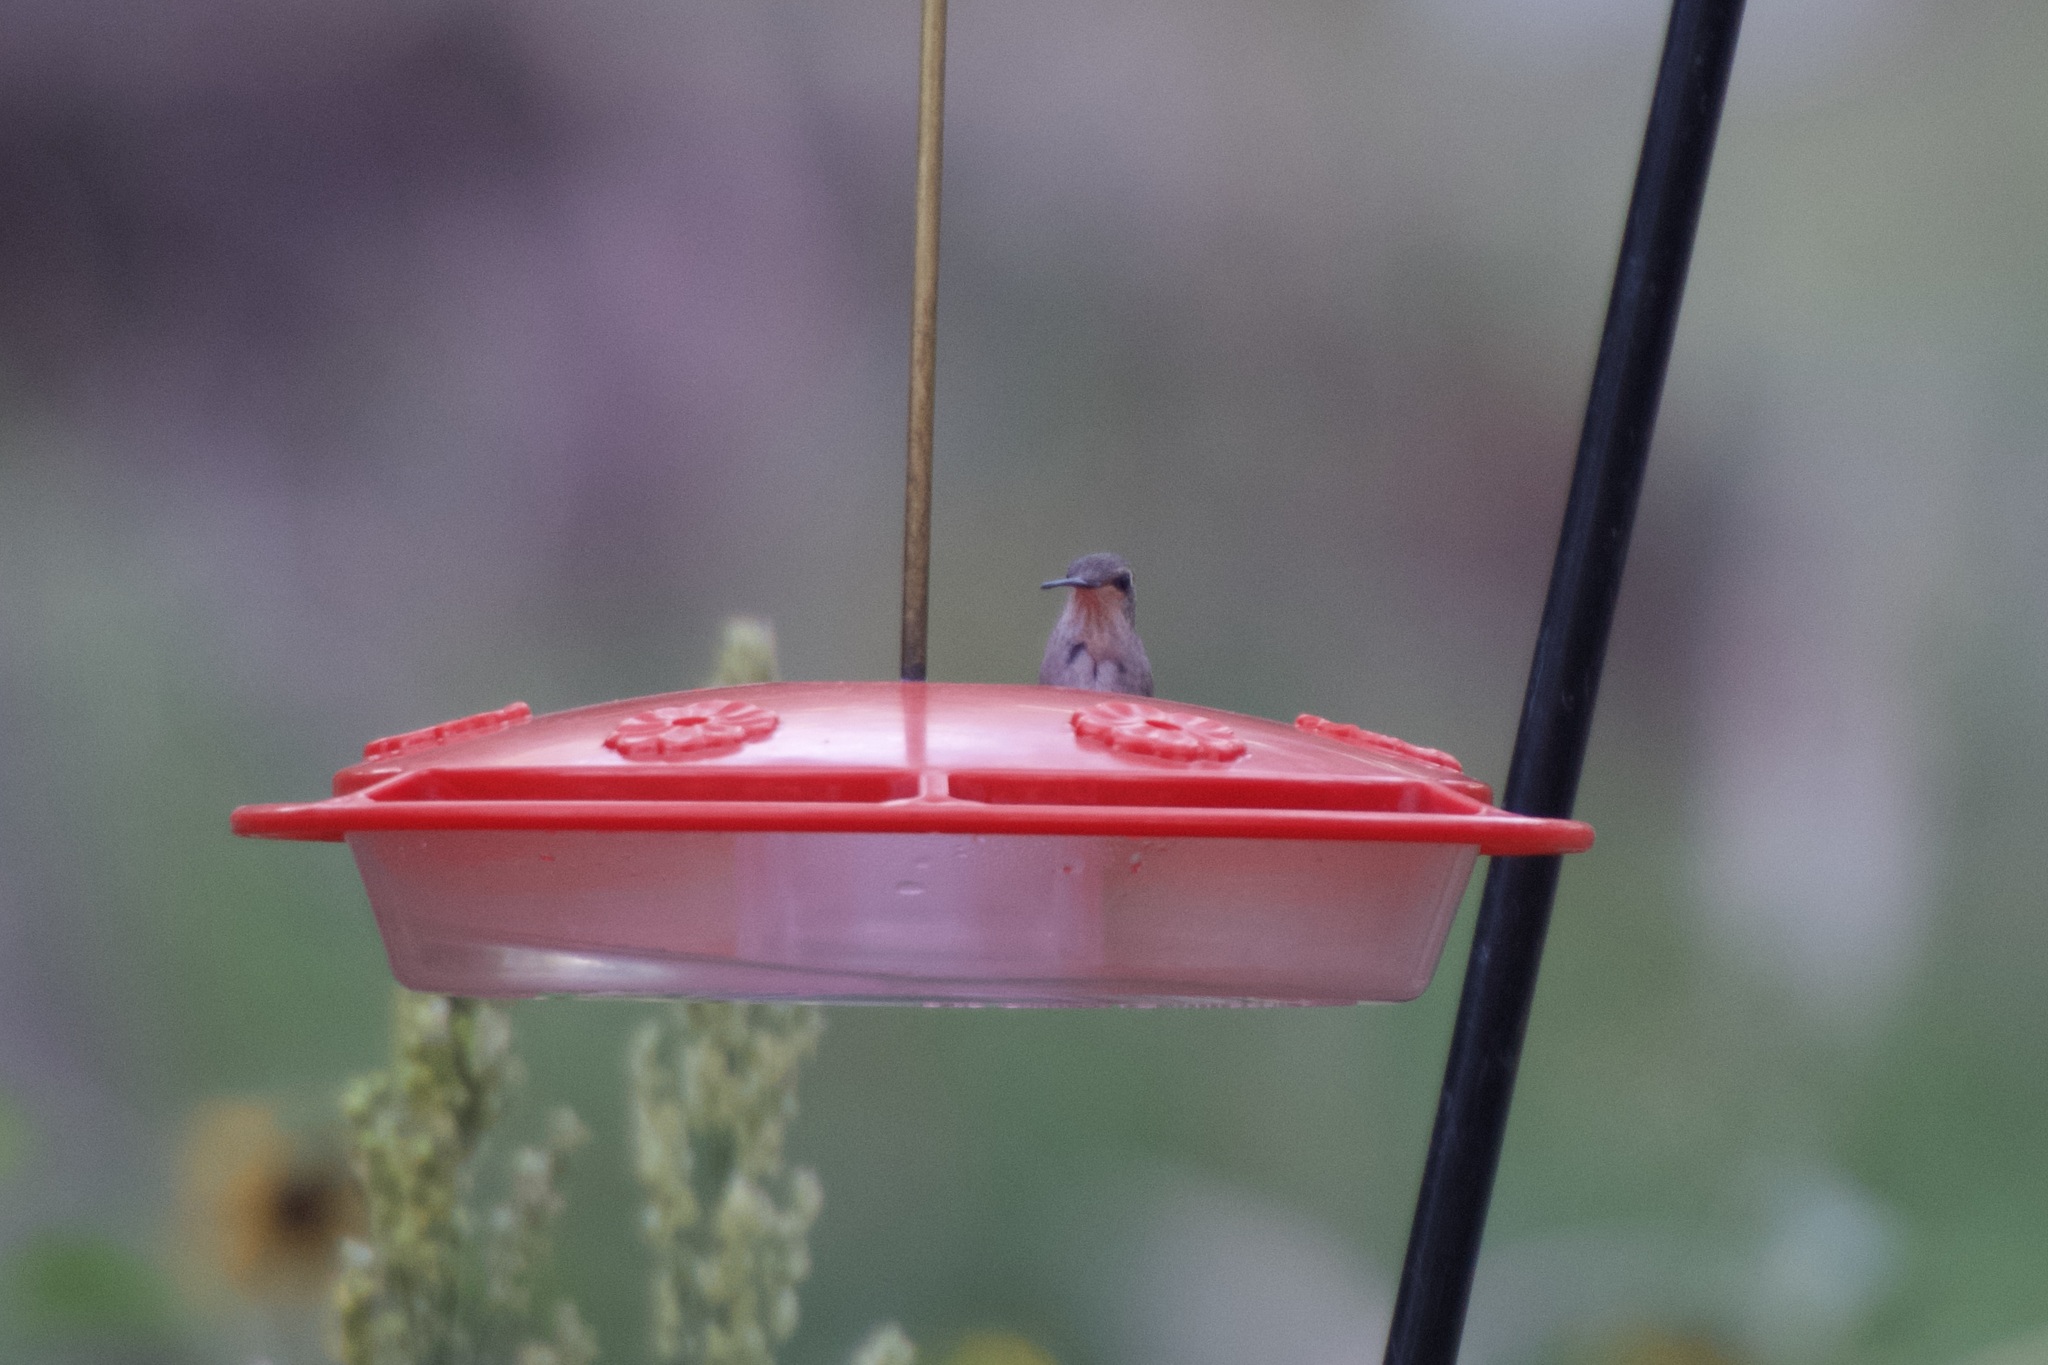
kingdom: Animalia
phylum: Chordata
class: Aves
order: Apodiformes
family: Trochilidae
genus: Calypte
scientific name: Calypte anna
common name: Anna's hummingbird
